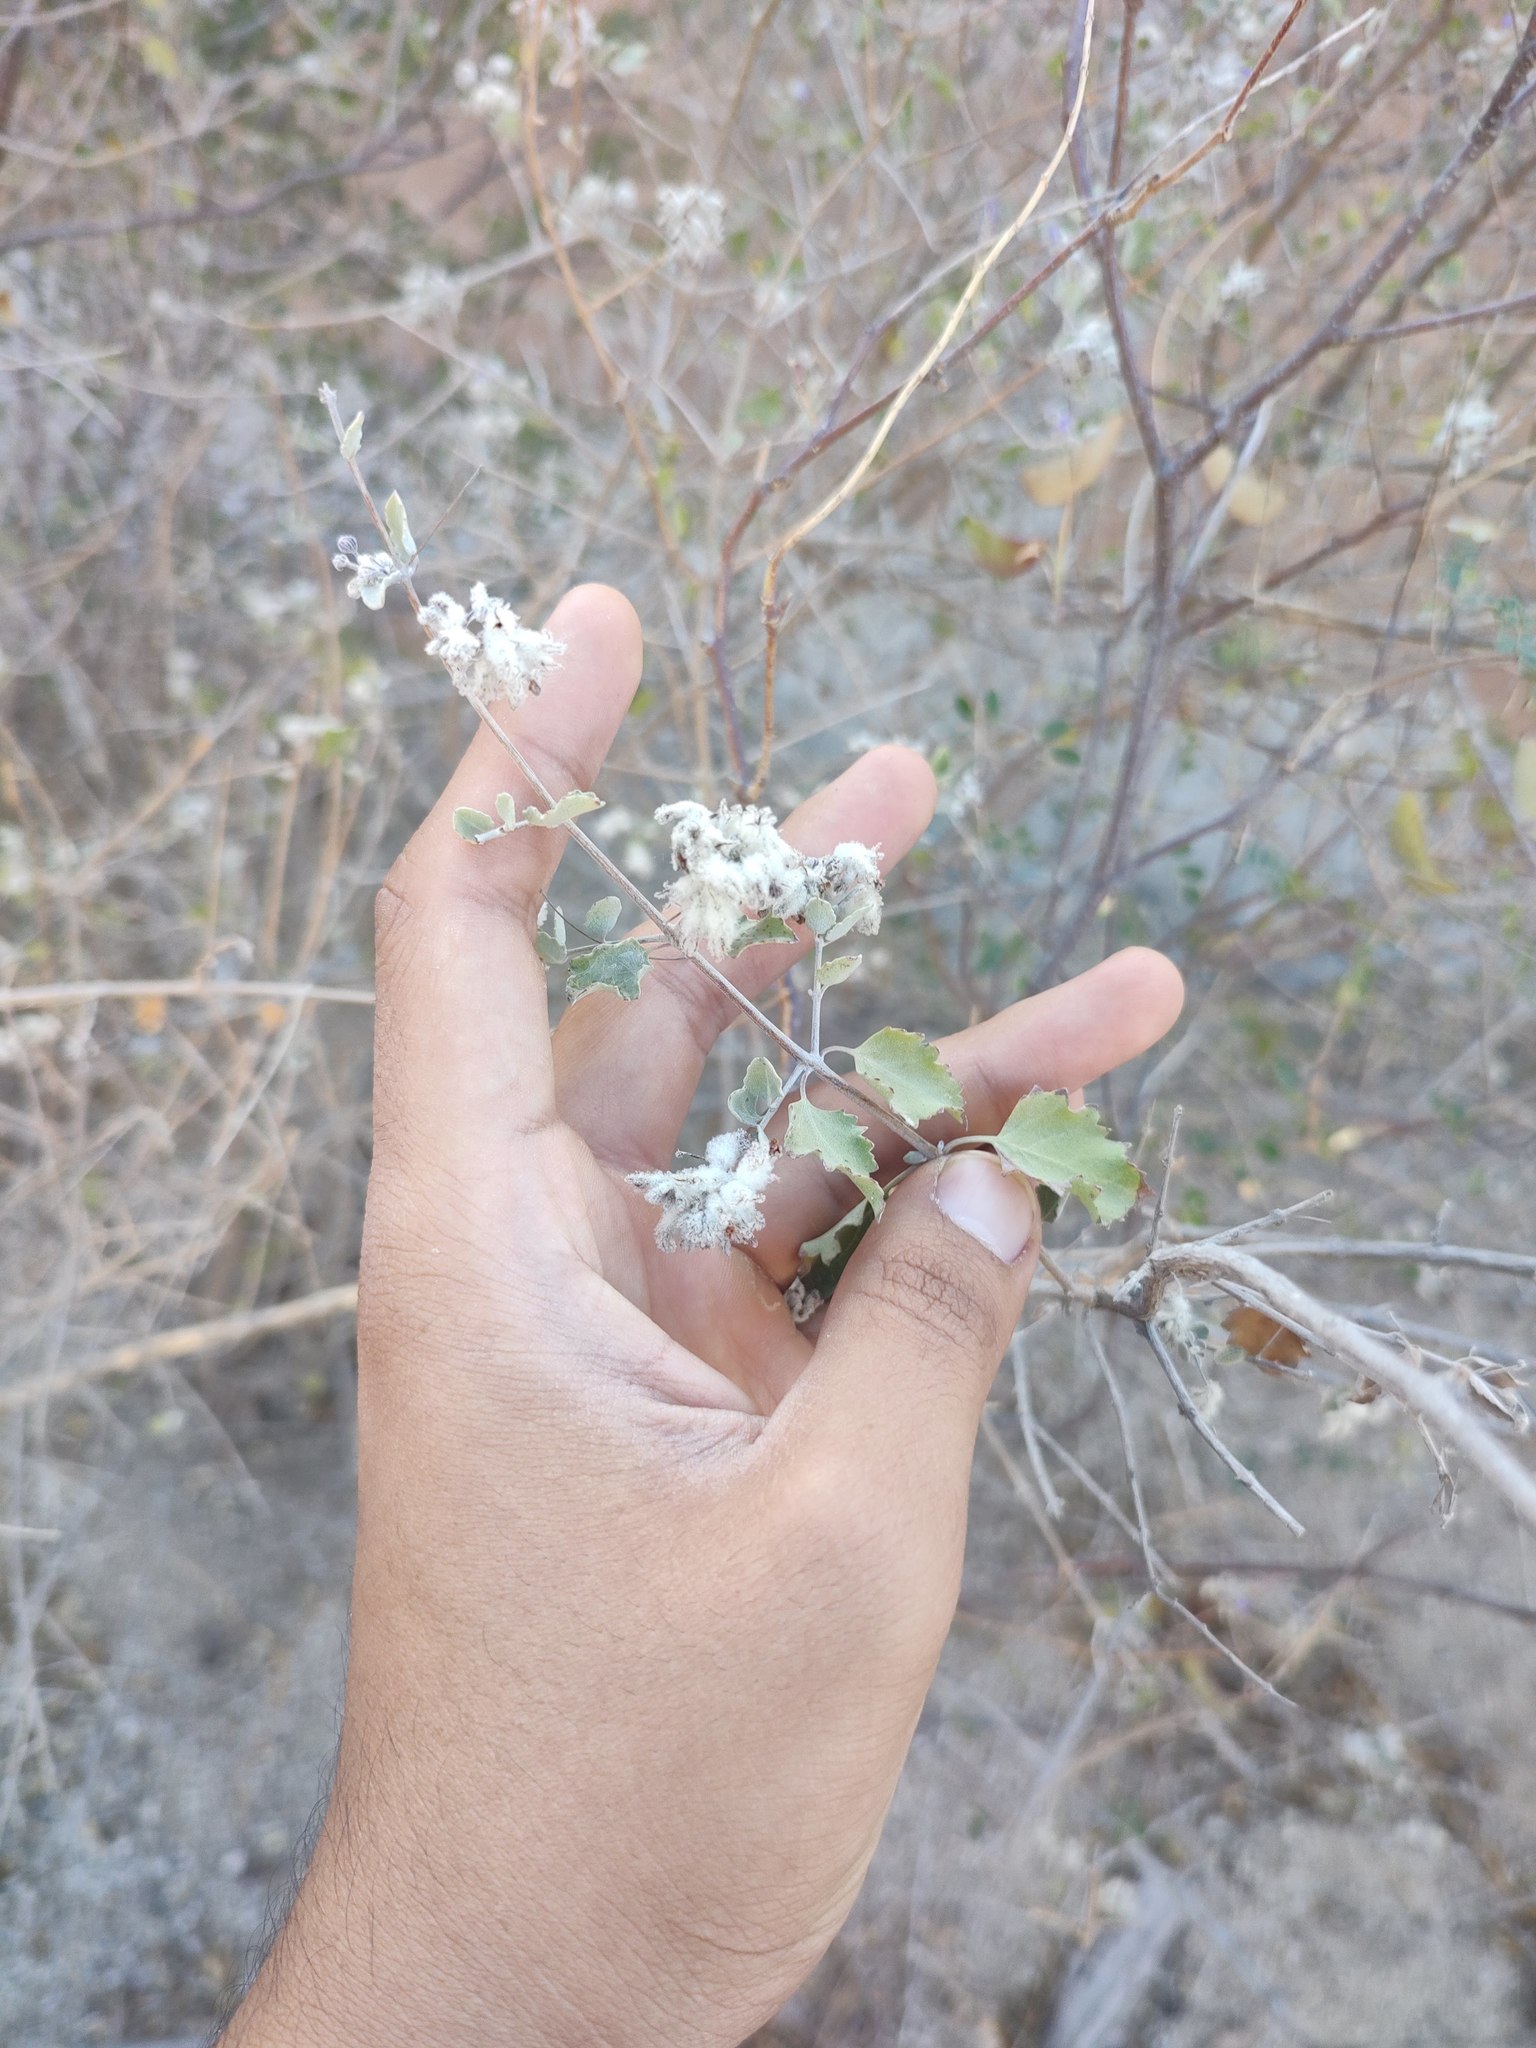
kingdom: Plantae
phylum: Tracheophyta
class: Magnoliopsida
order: Lamiales
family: Lamiaceae
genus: Condea
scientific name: Condea laniflora
